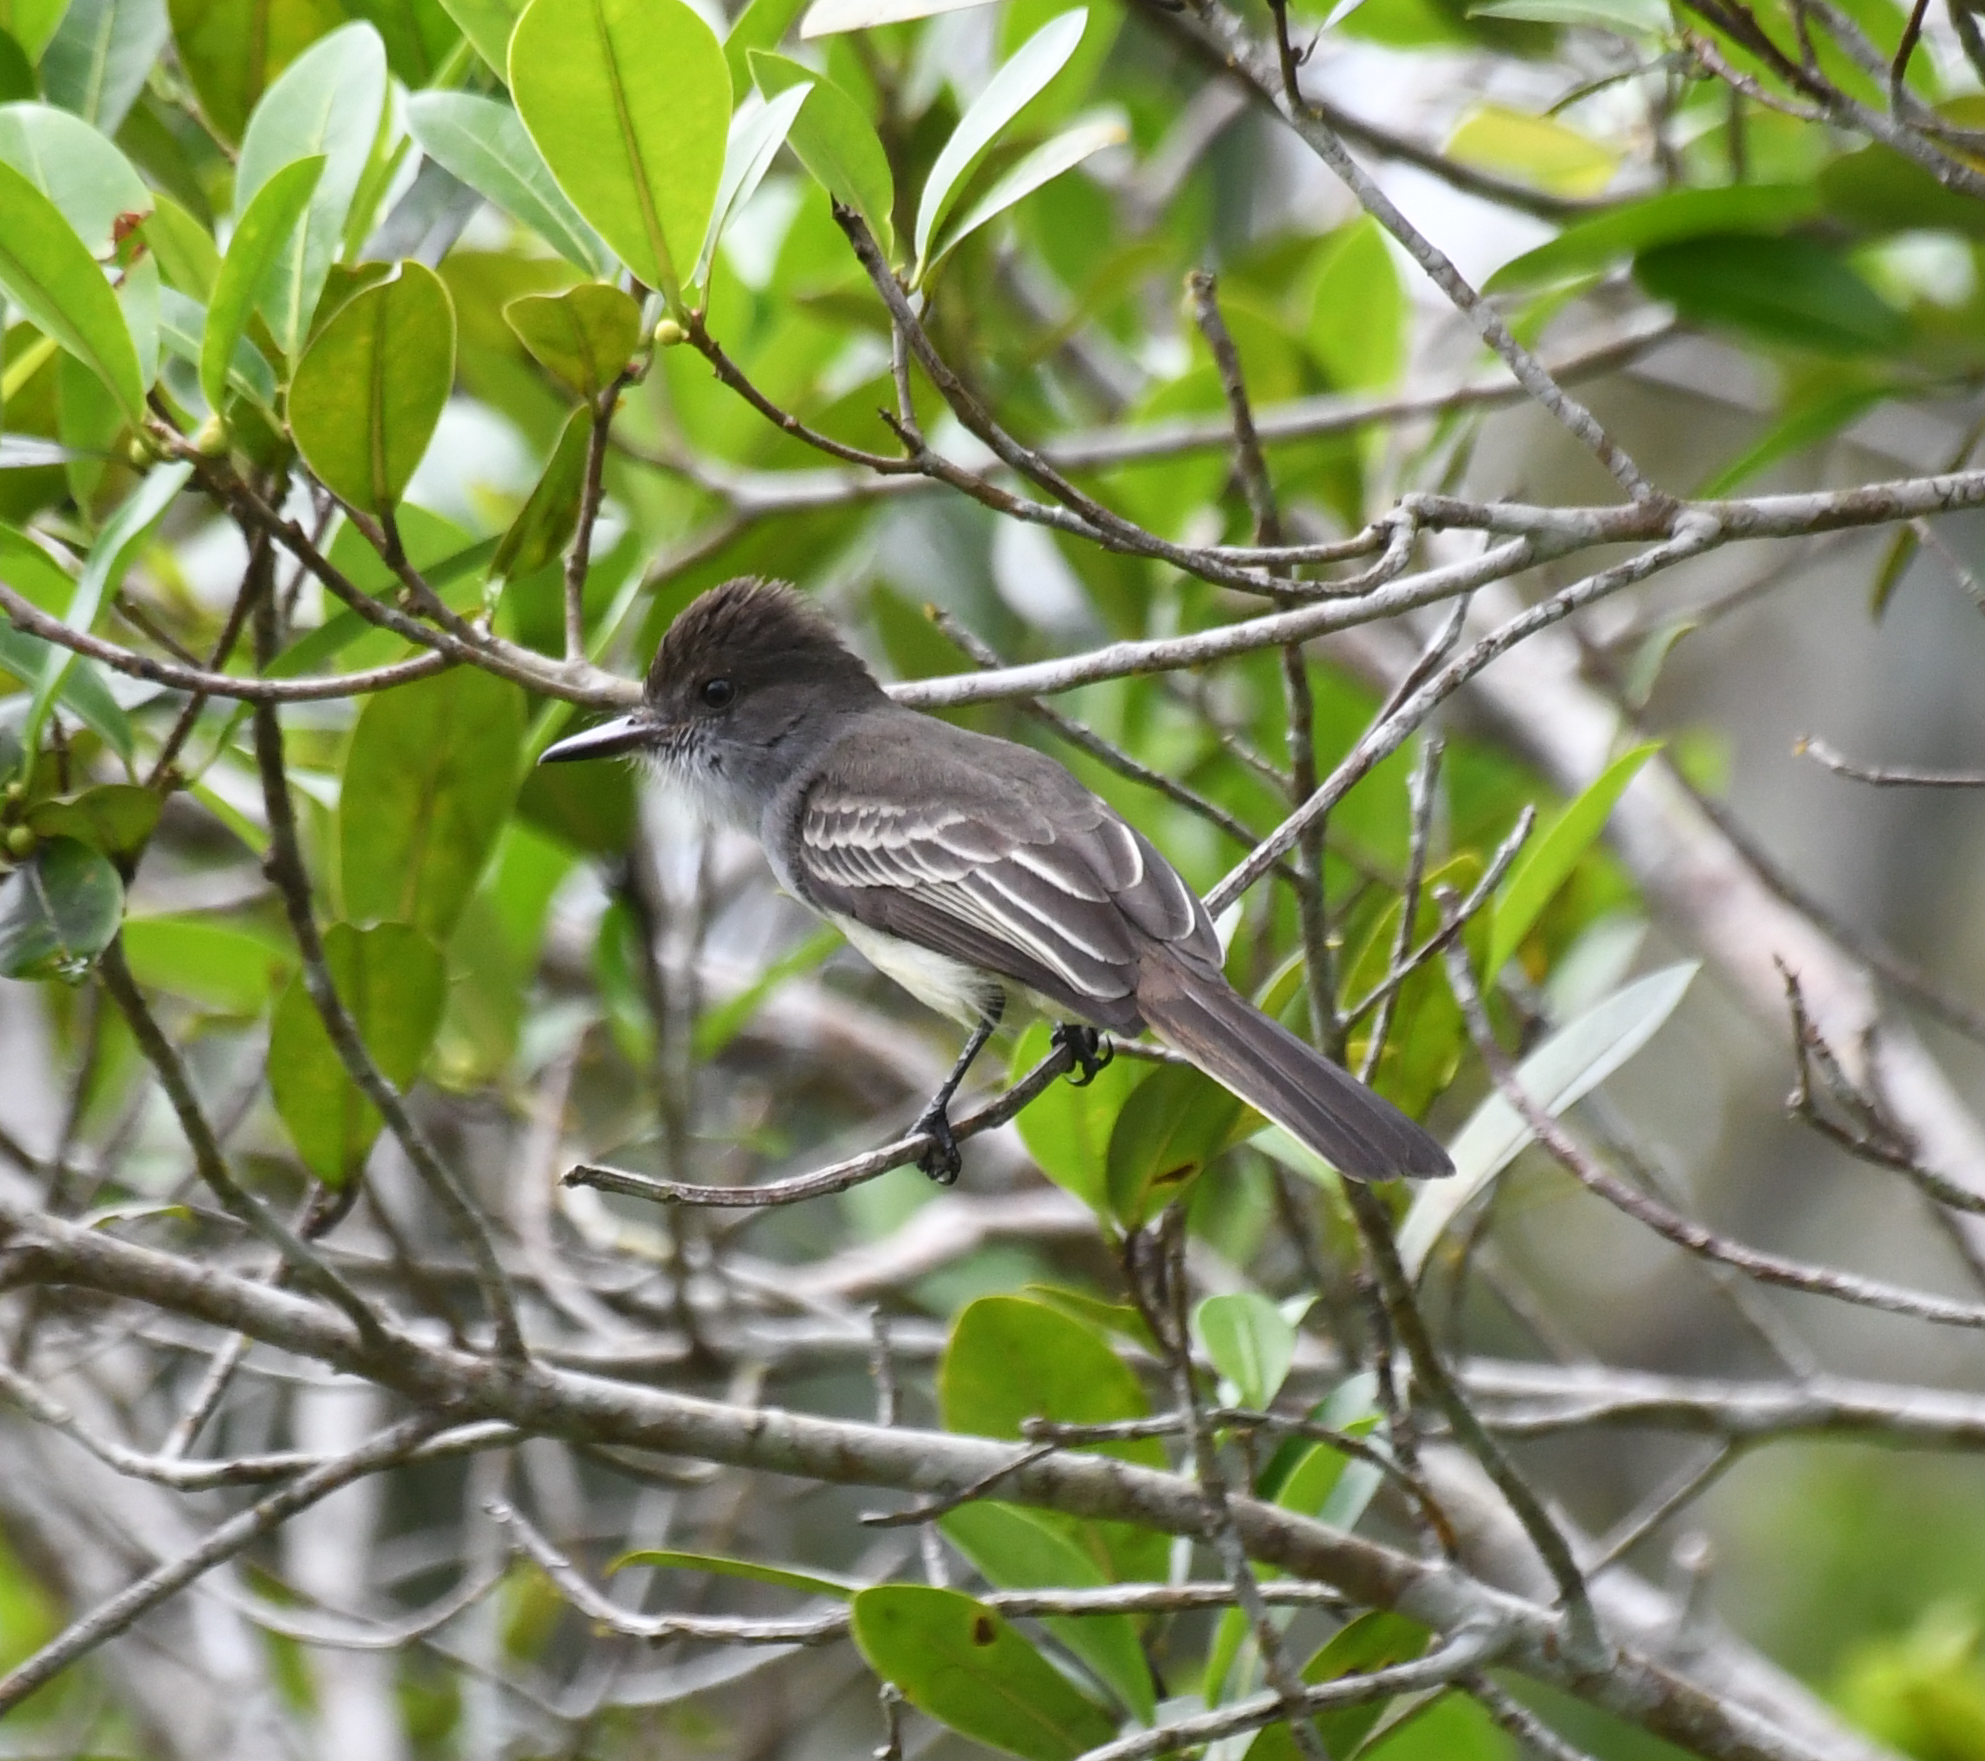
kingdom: Animalia
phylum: Chordata
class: Aves
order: Passeriformes
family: Tyrannidae
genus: Myiarchus
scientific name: Myiarchus ferox
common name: Short-crested flycatcher
